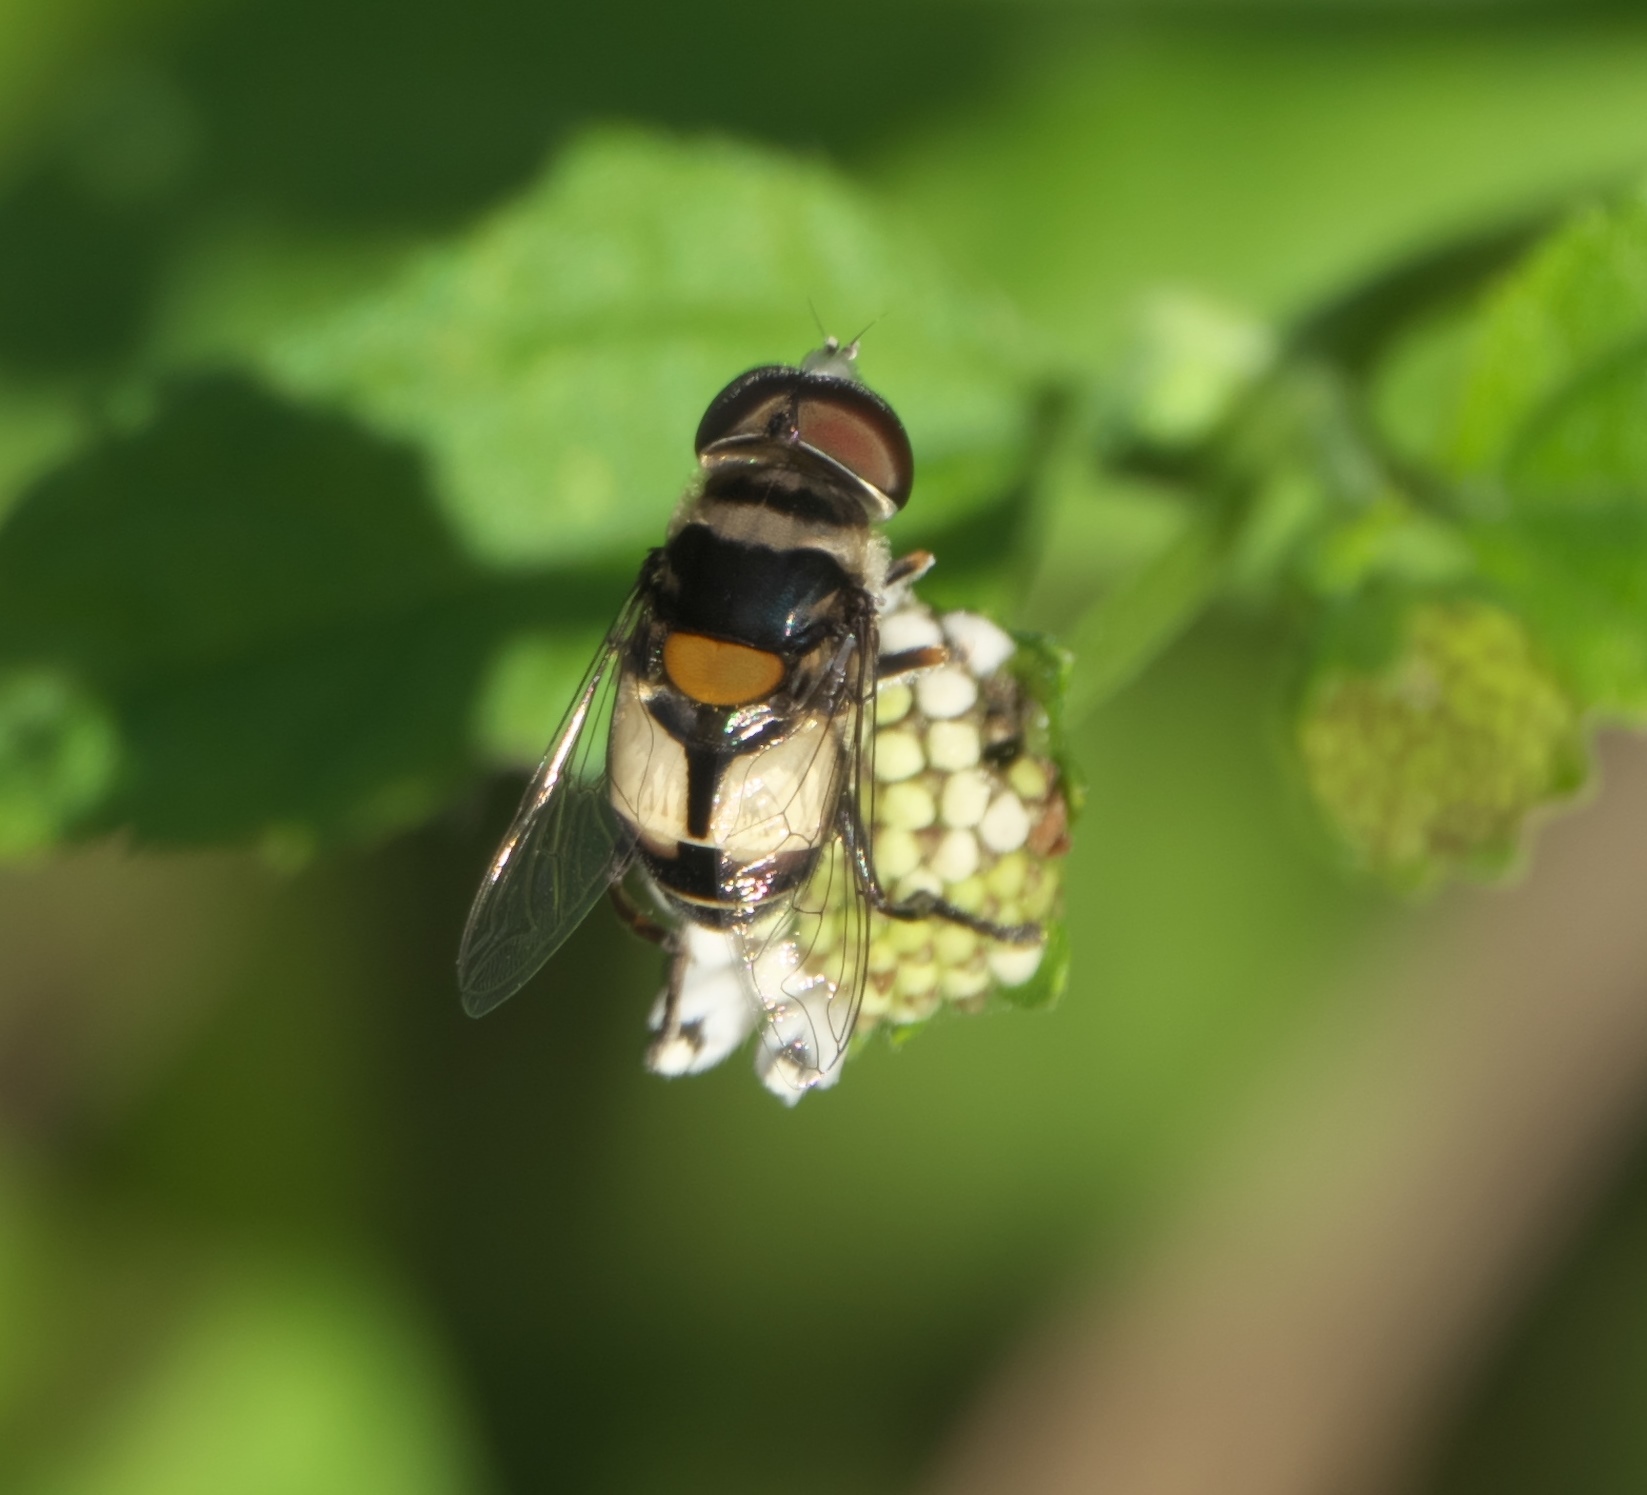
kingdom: Animalia
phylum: Arthropoda
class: Insecta
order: Diptera
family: Syrphidae
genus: Palpada
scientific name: Palpada albifrons
